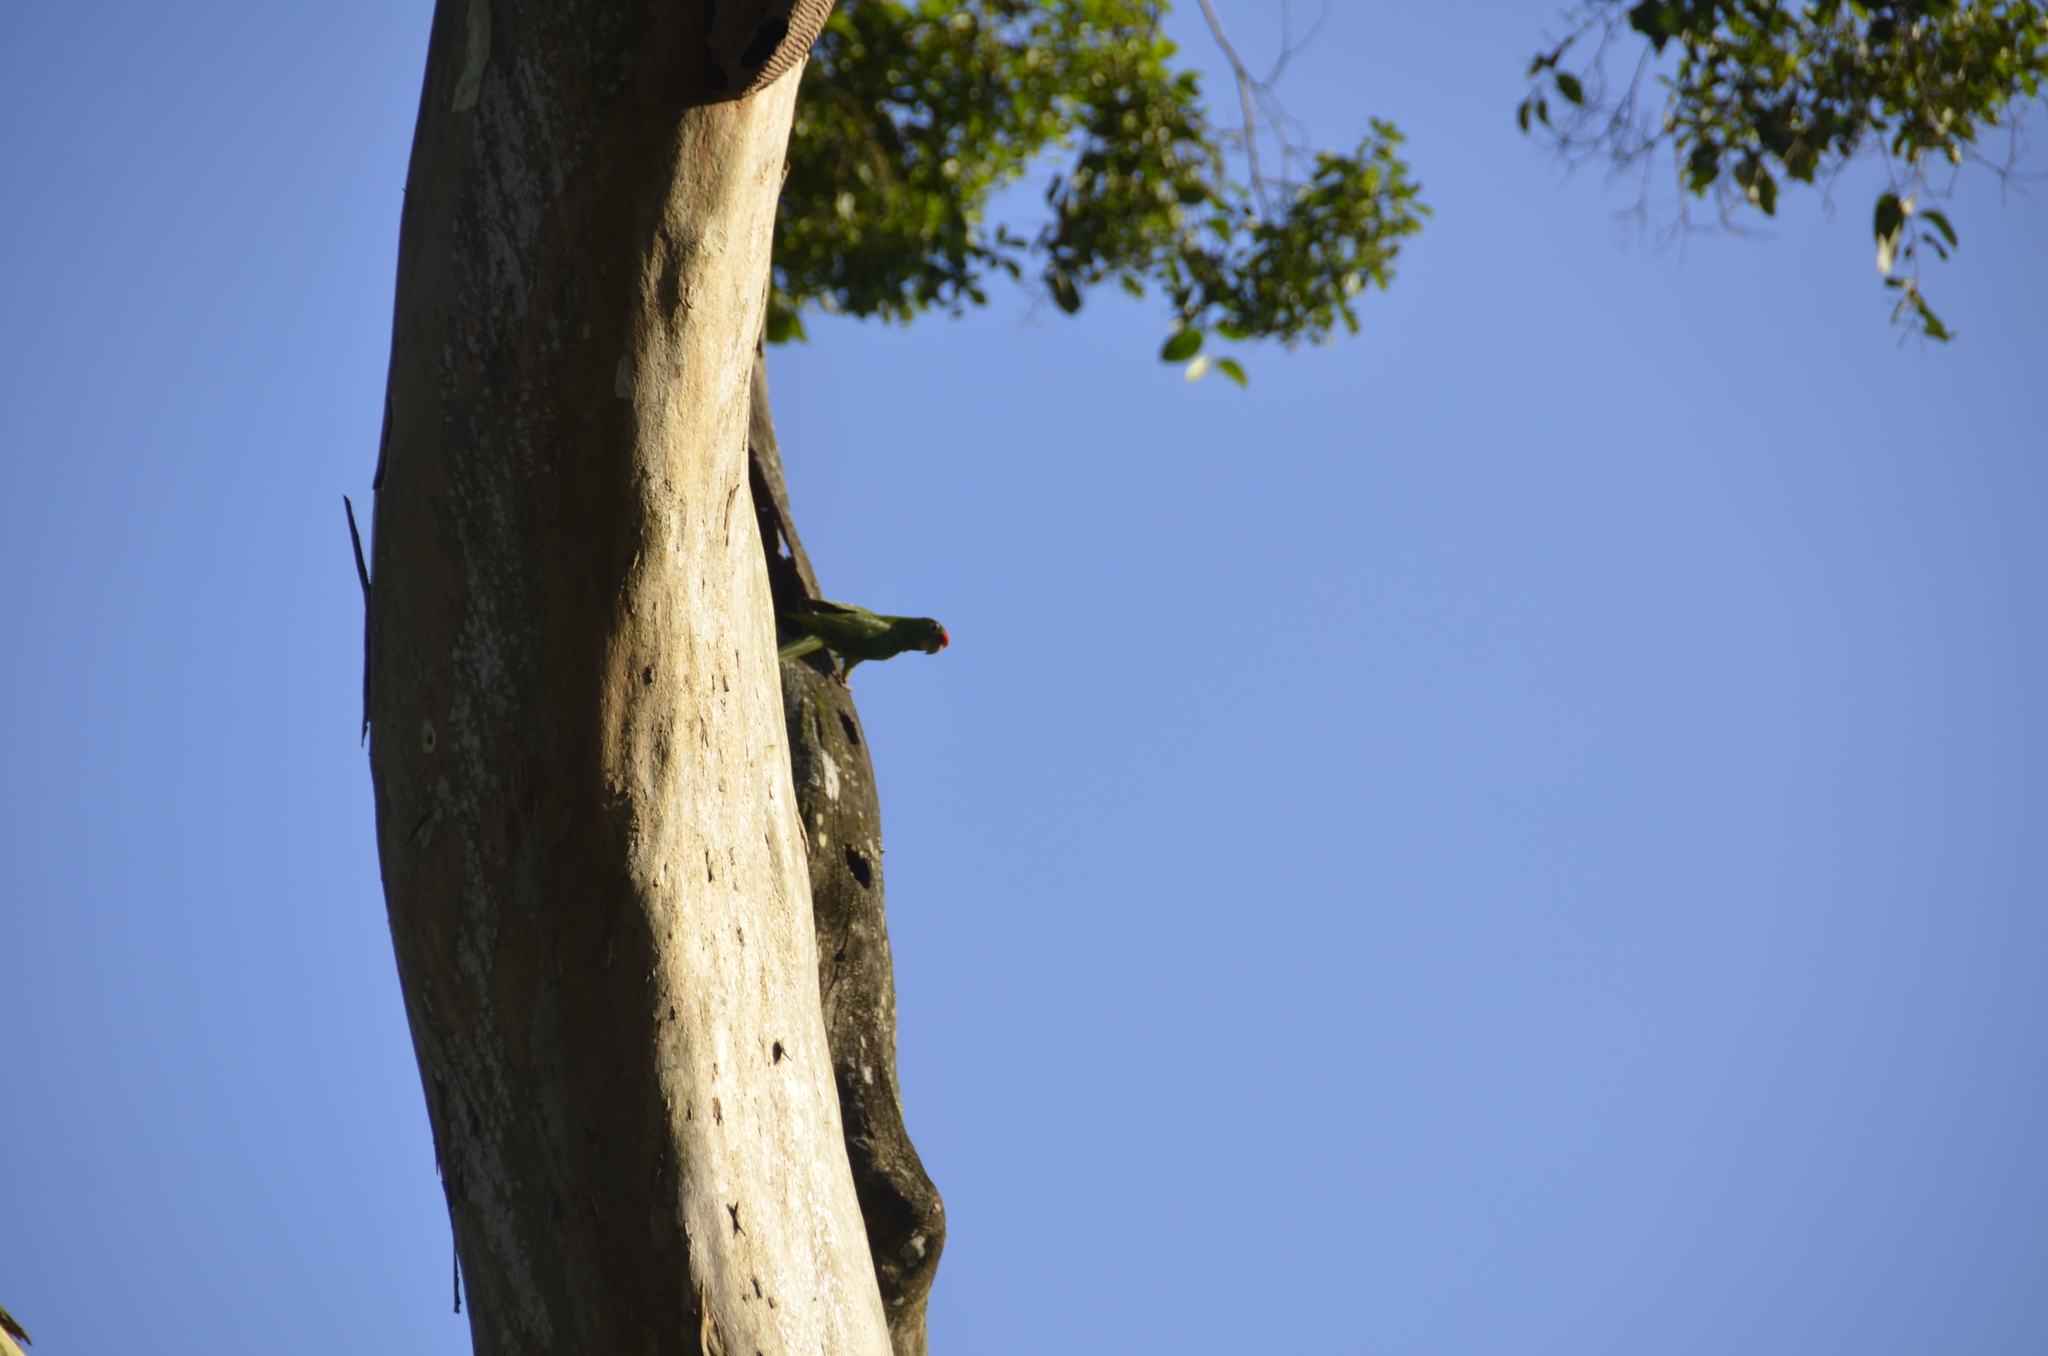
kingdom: Animalia
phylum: Chordata
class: Aves
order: Psittaciformes
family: Psittacidae
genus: Aratinga
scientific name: Aratinga finschi
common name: Crimson-fronted parakeet
